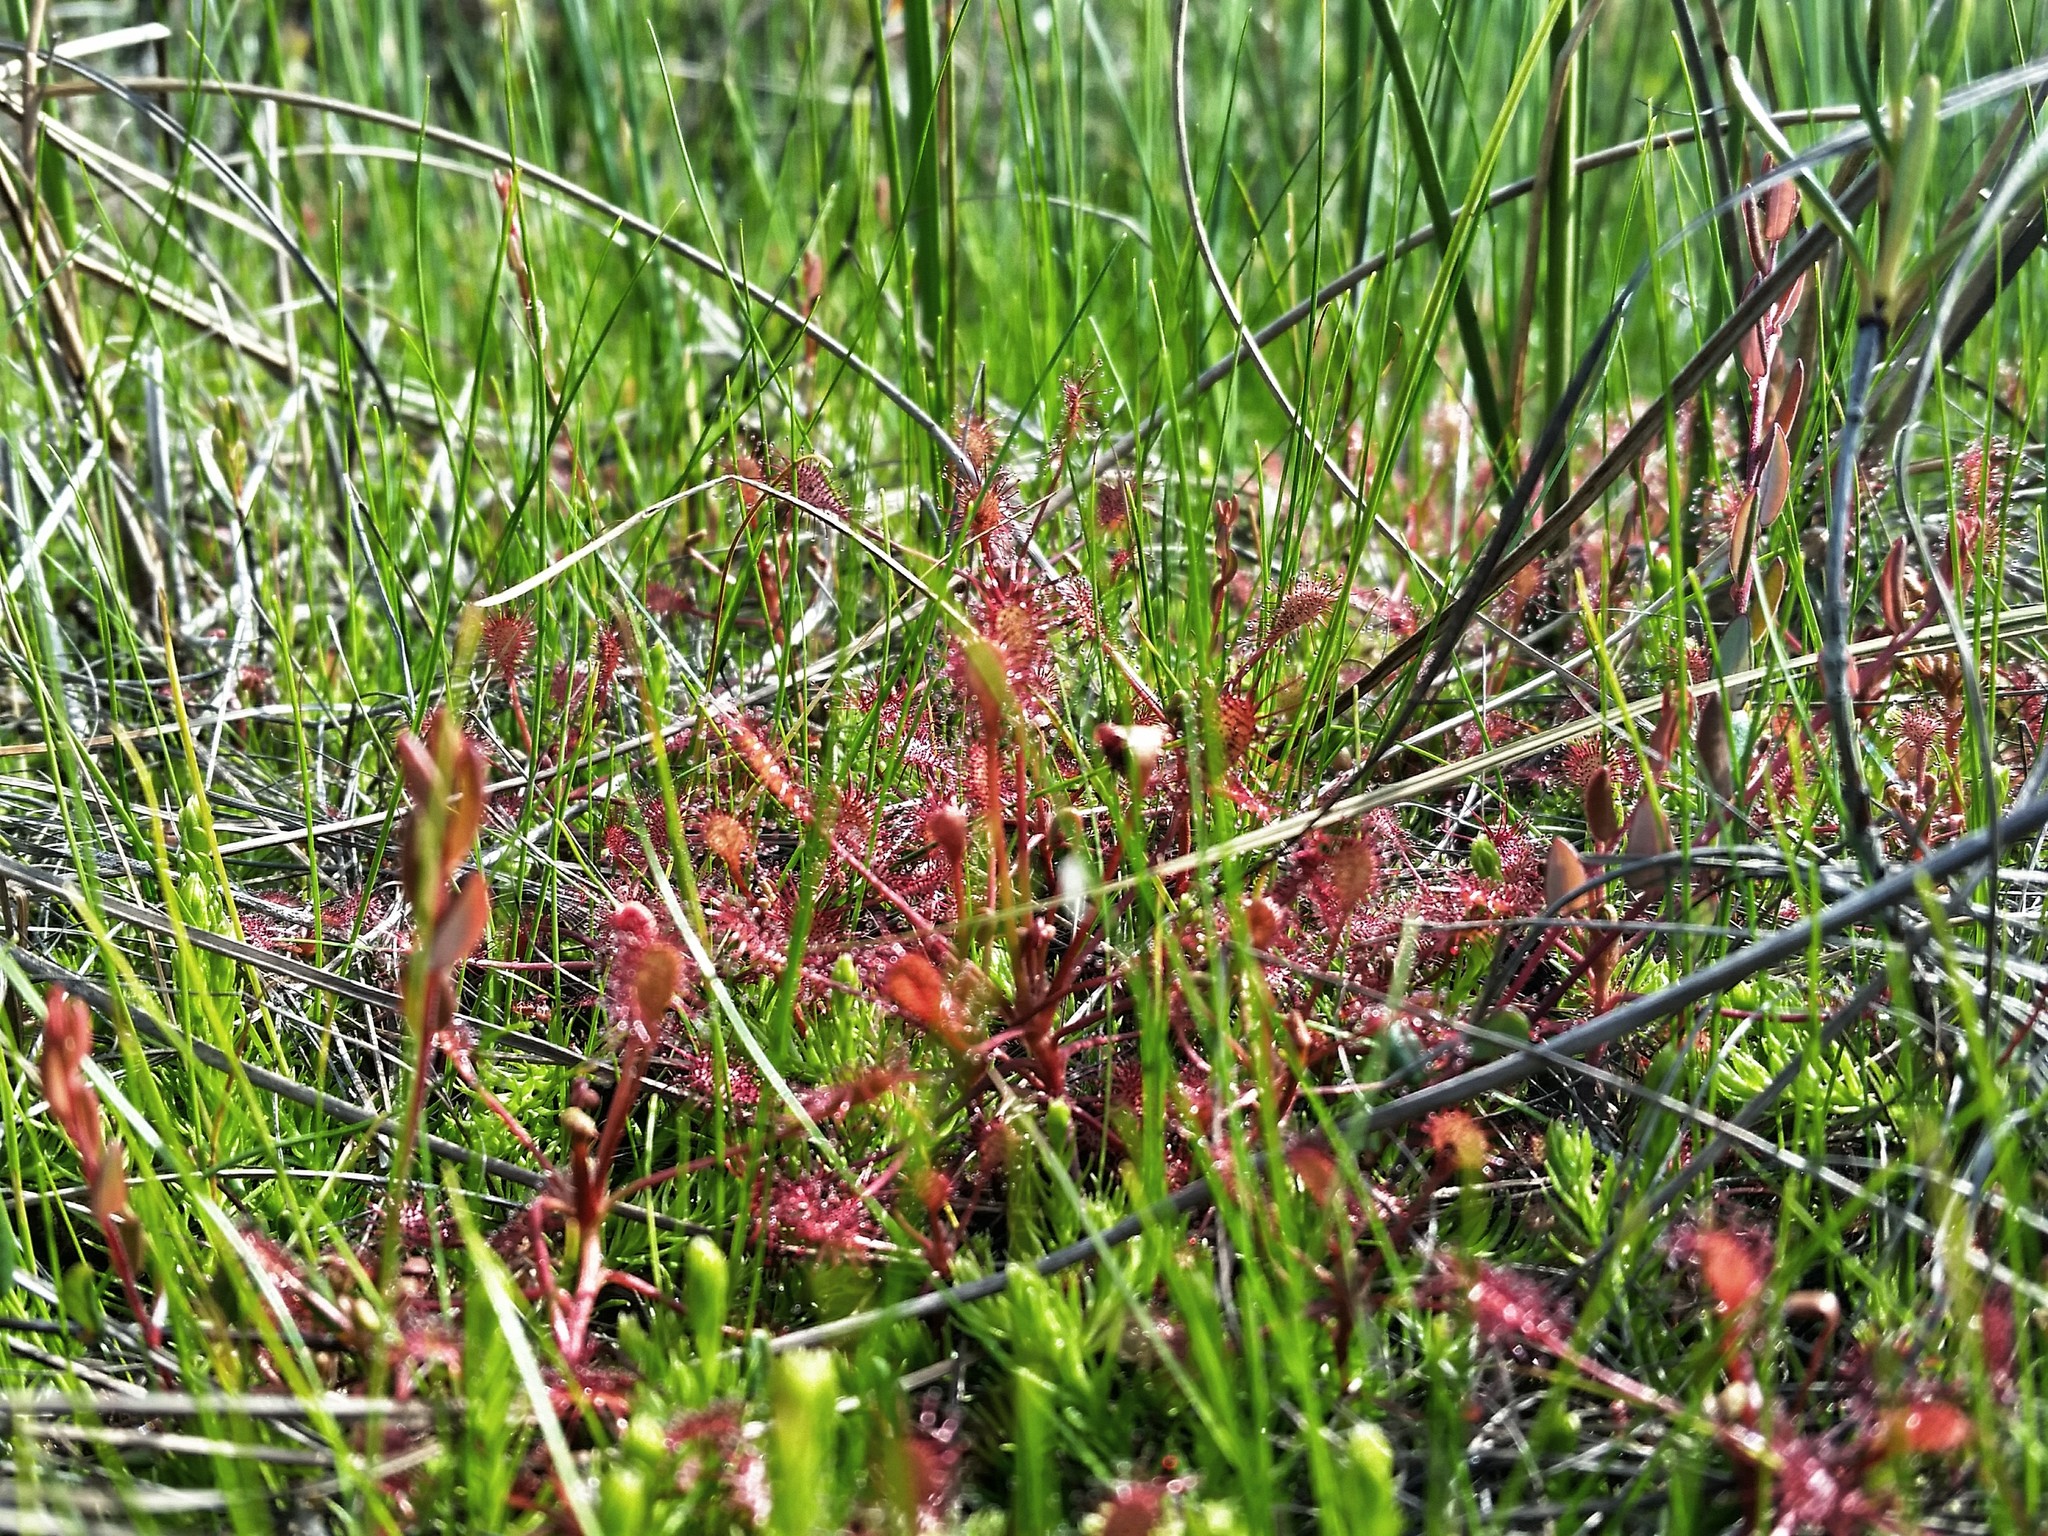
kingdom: Plantae
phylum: Tracheophyta
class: Magnoliopsida
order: Caryophyllales
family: Droseraceae
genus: Drosera
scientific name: Drosera intermedia
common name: Oblong-leaved sundew
